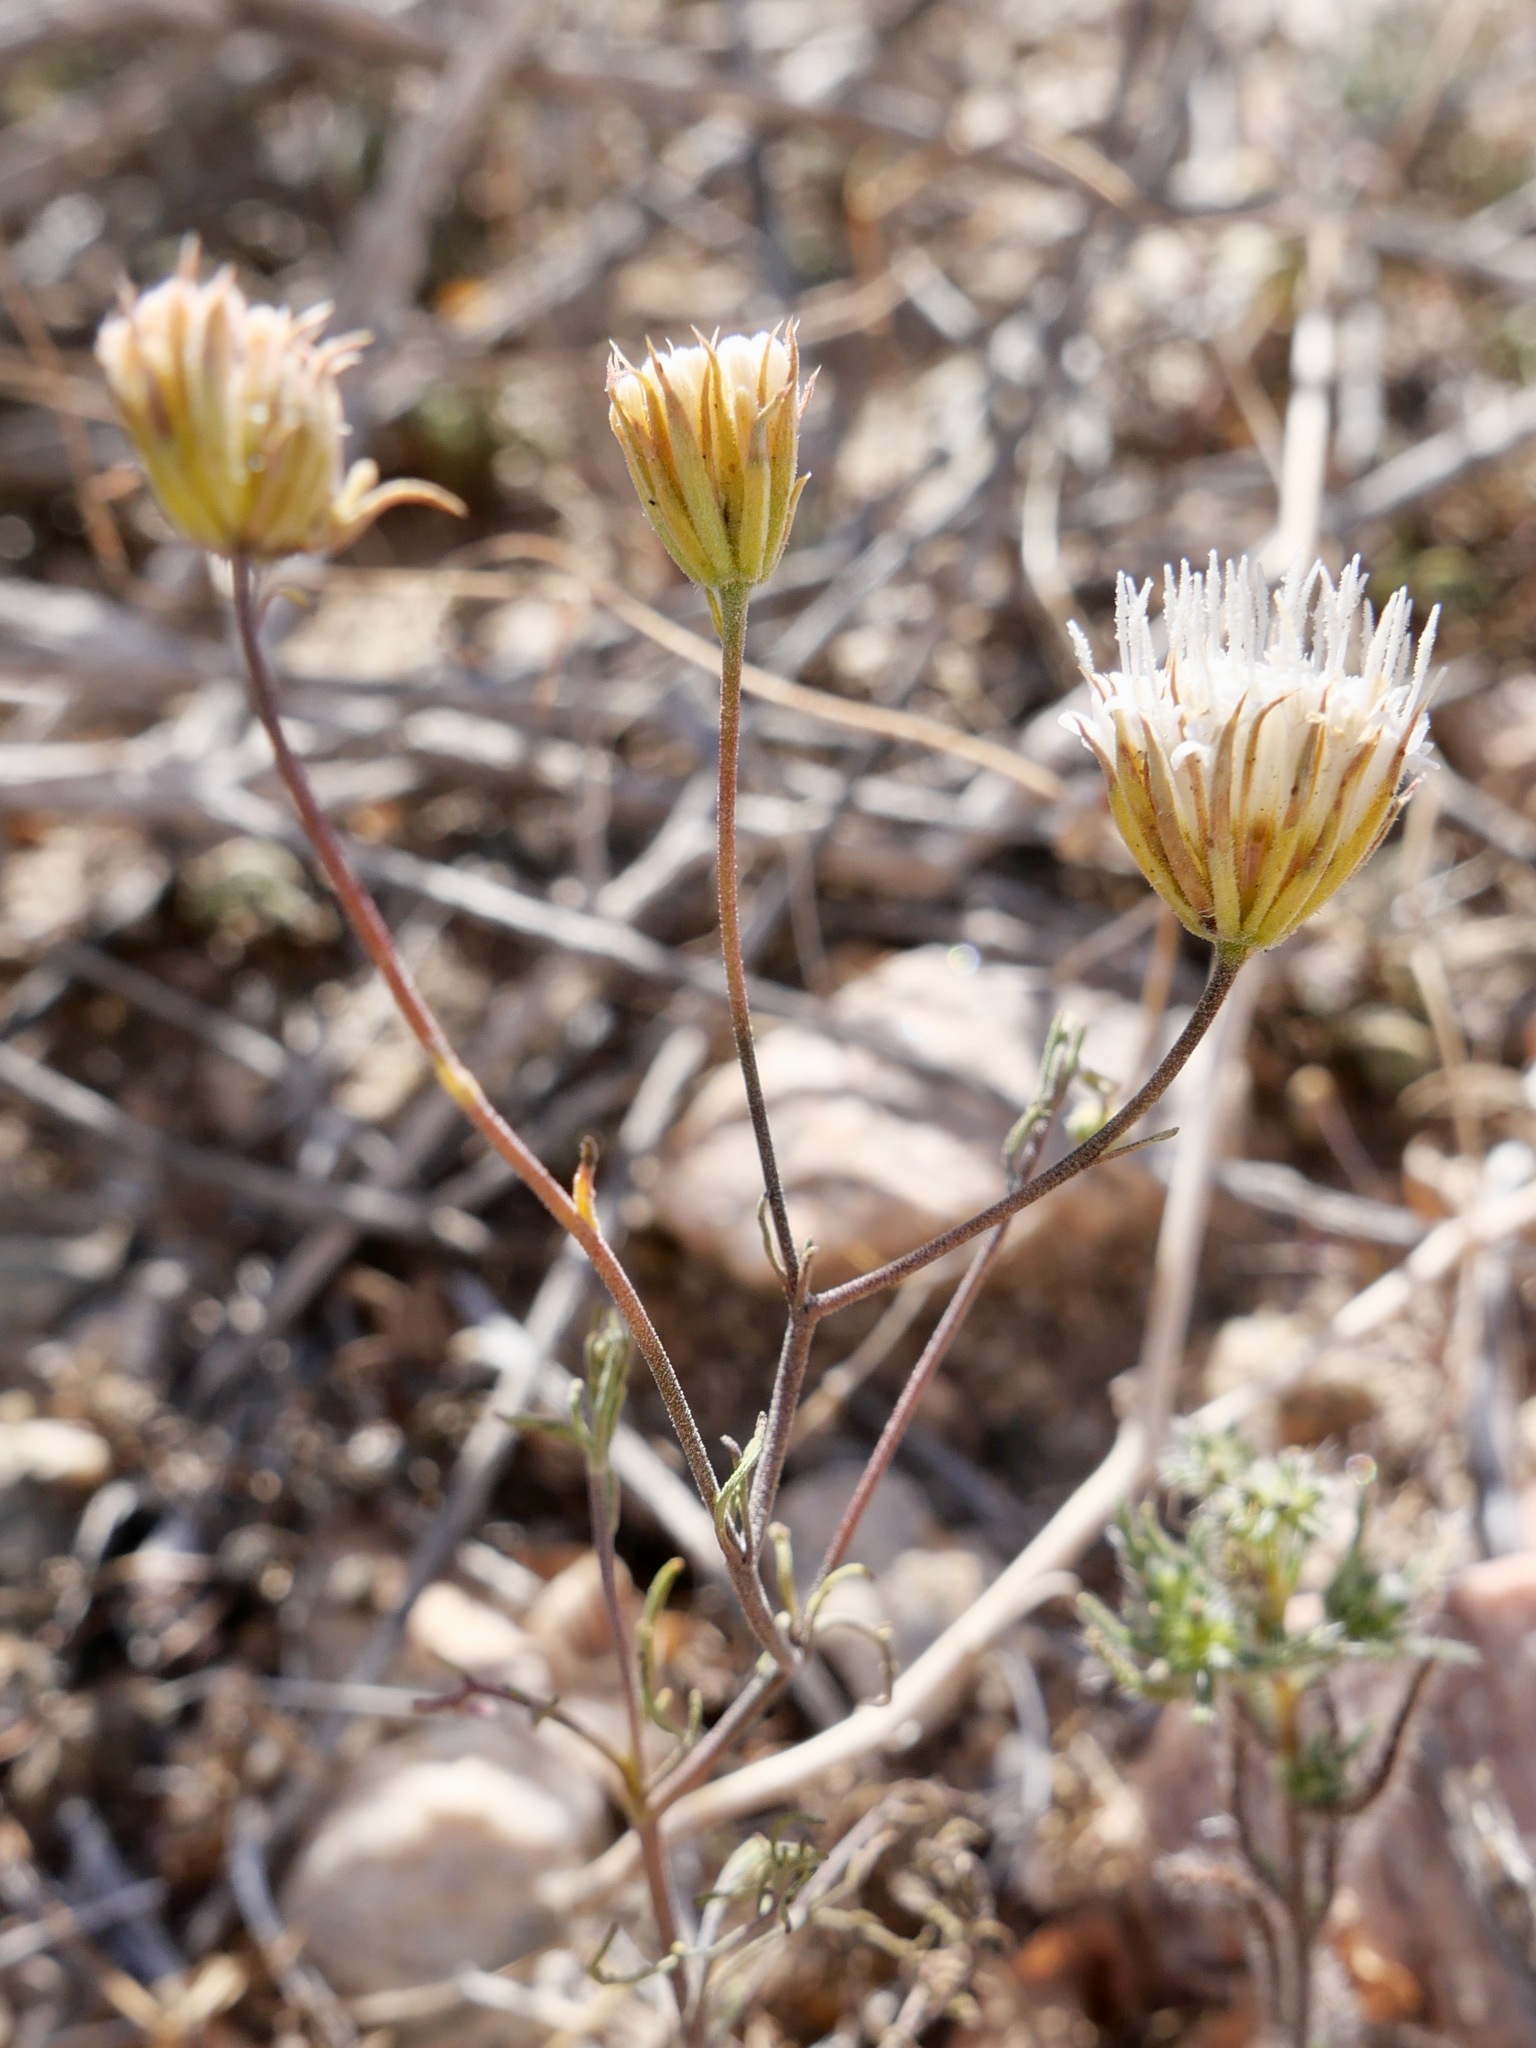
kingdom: Plantae
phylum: Tracheophyta
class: Magnoliopsida
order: Asterales
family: Asteraceae
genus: Chaenactis
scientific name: Chaenactis carphoclinia
